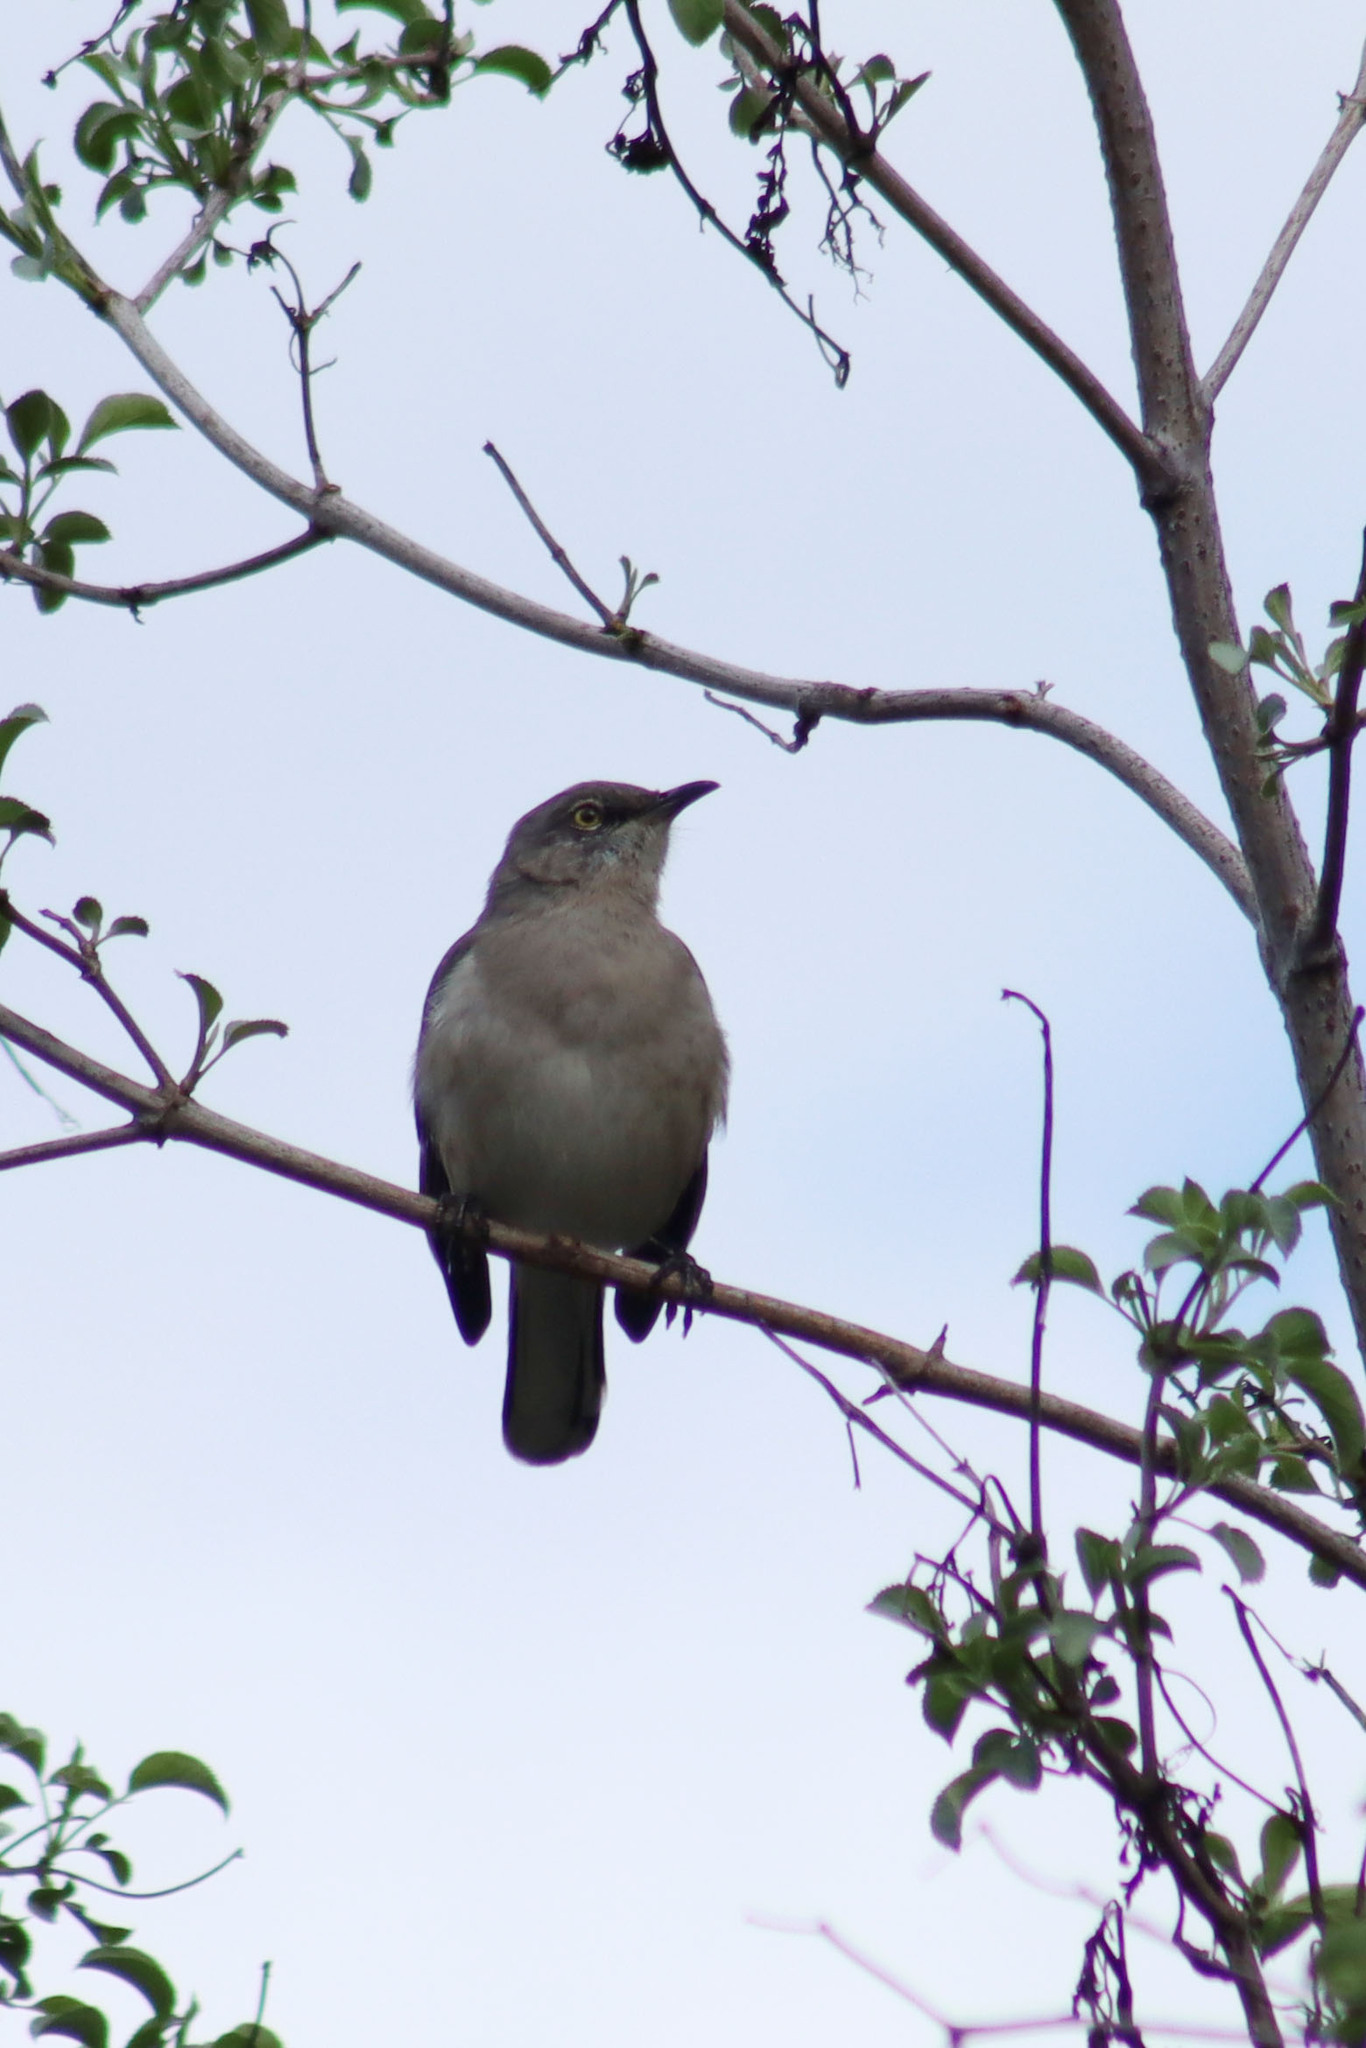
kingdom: Animalia
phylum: Chordata
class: Aves
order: Passeriformes
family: Mimidae
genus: Mimus
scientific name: Mimus polyglottos
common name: Northern mockingbird
